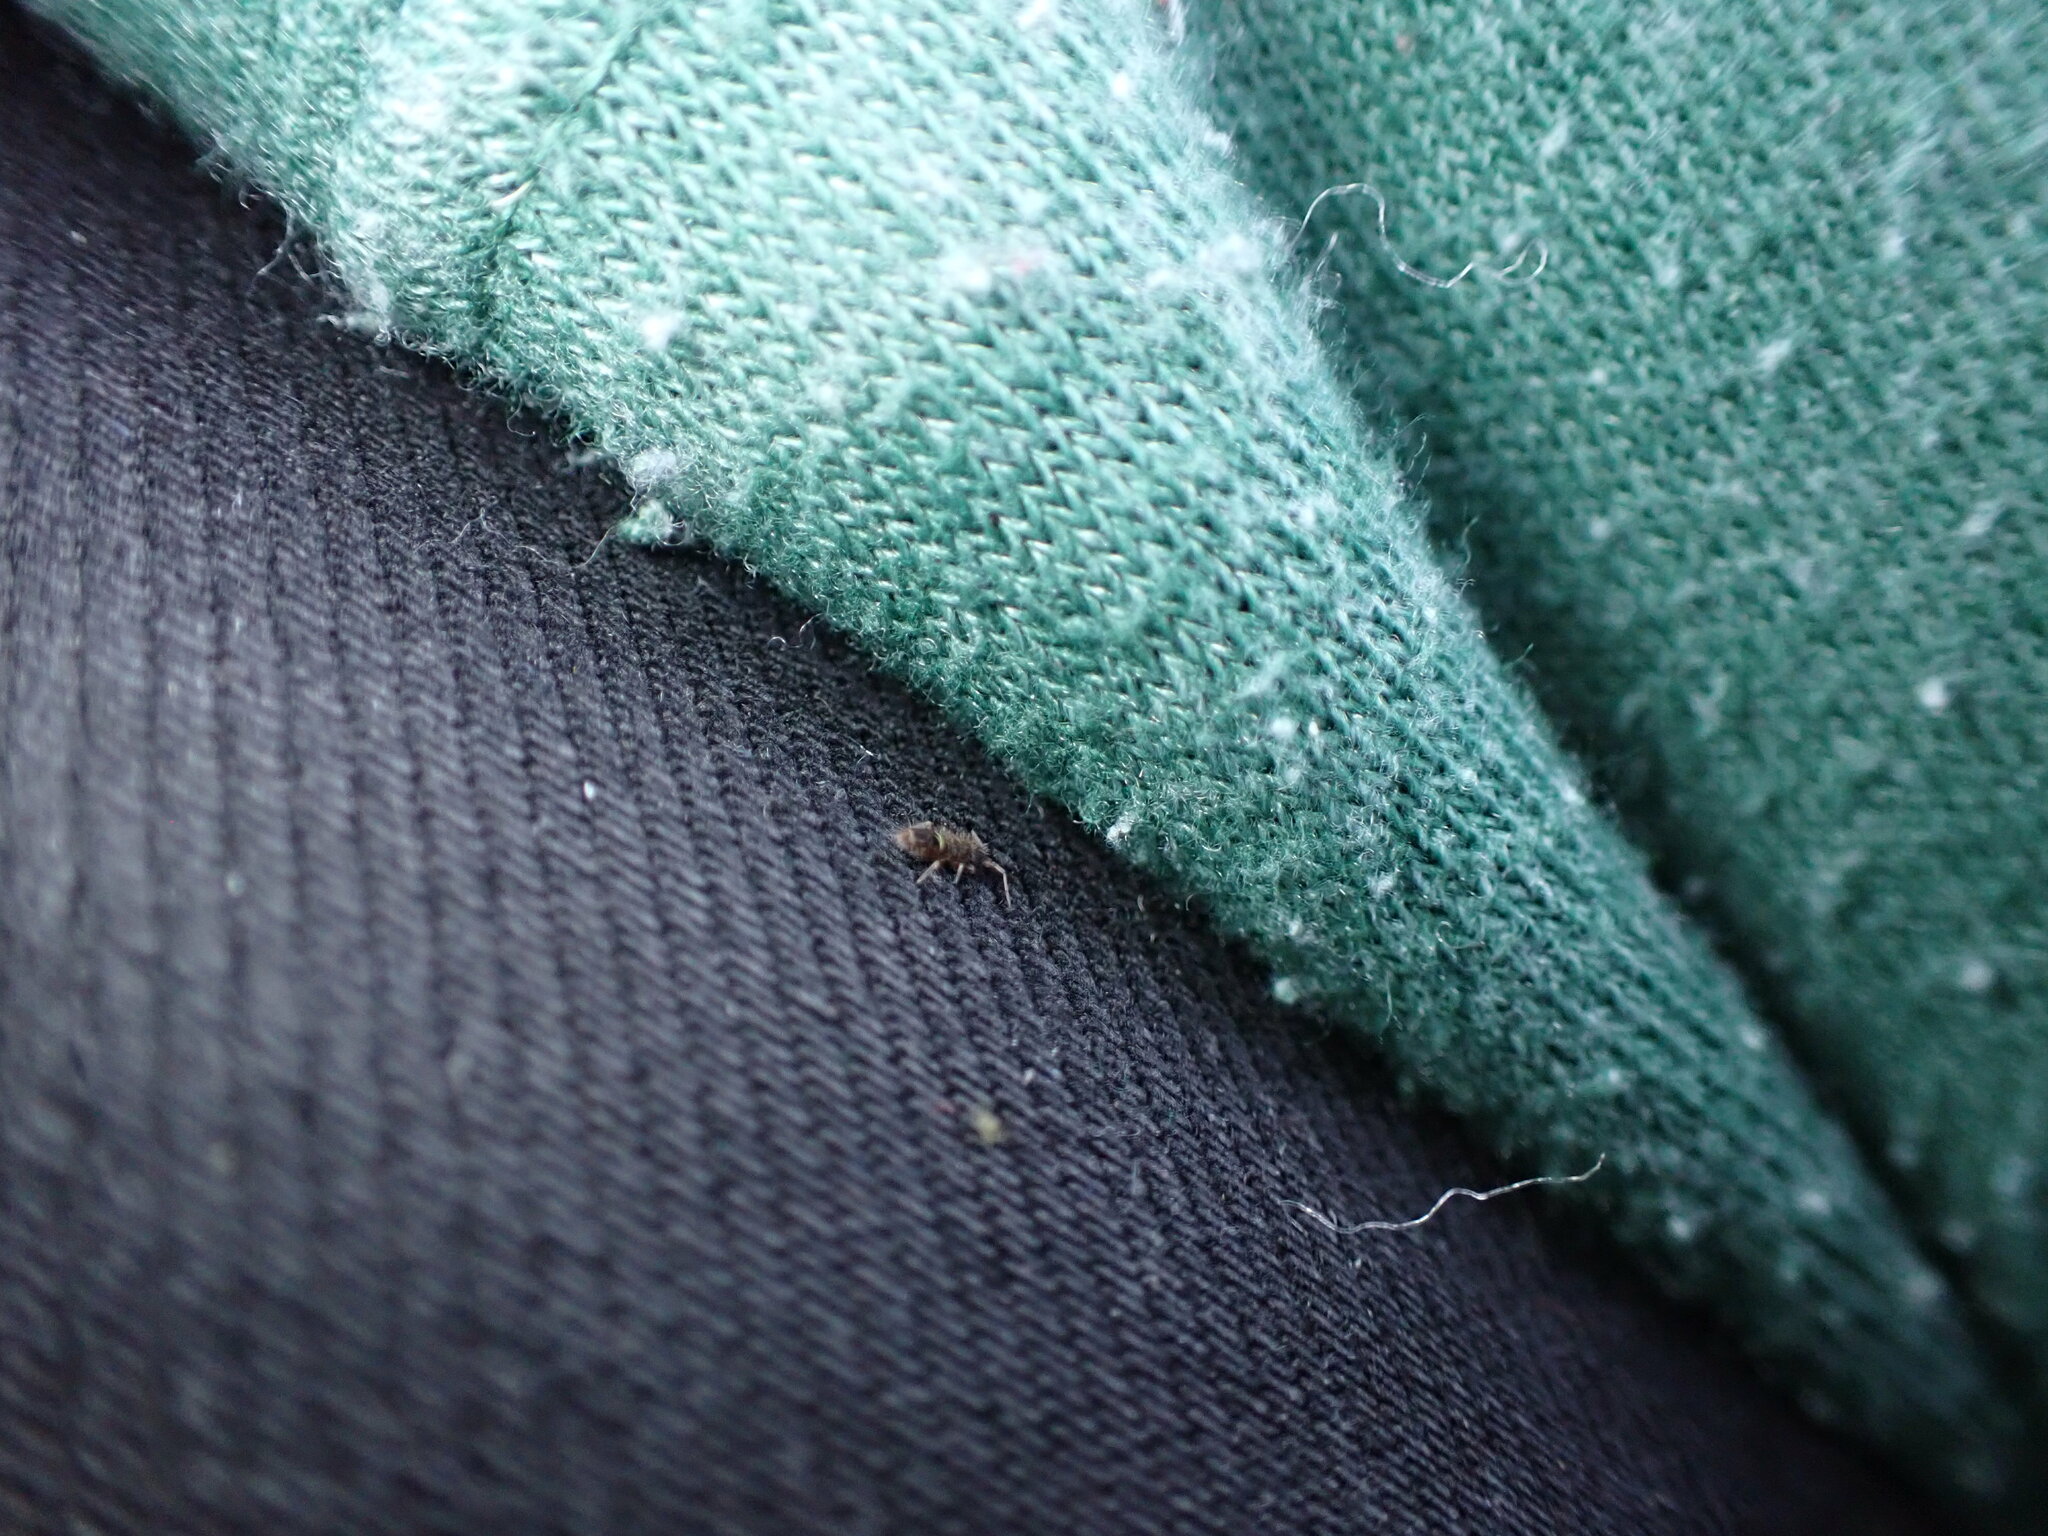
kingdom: Animalia
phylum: Arthropoda
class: Collembola
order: Entomobryomorpha
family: Orchesellidae
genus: Orchesella
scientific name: Orchesella cincta
